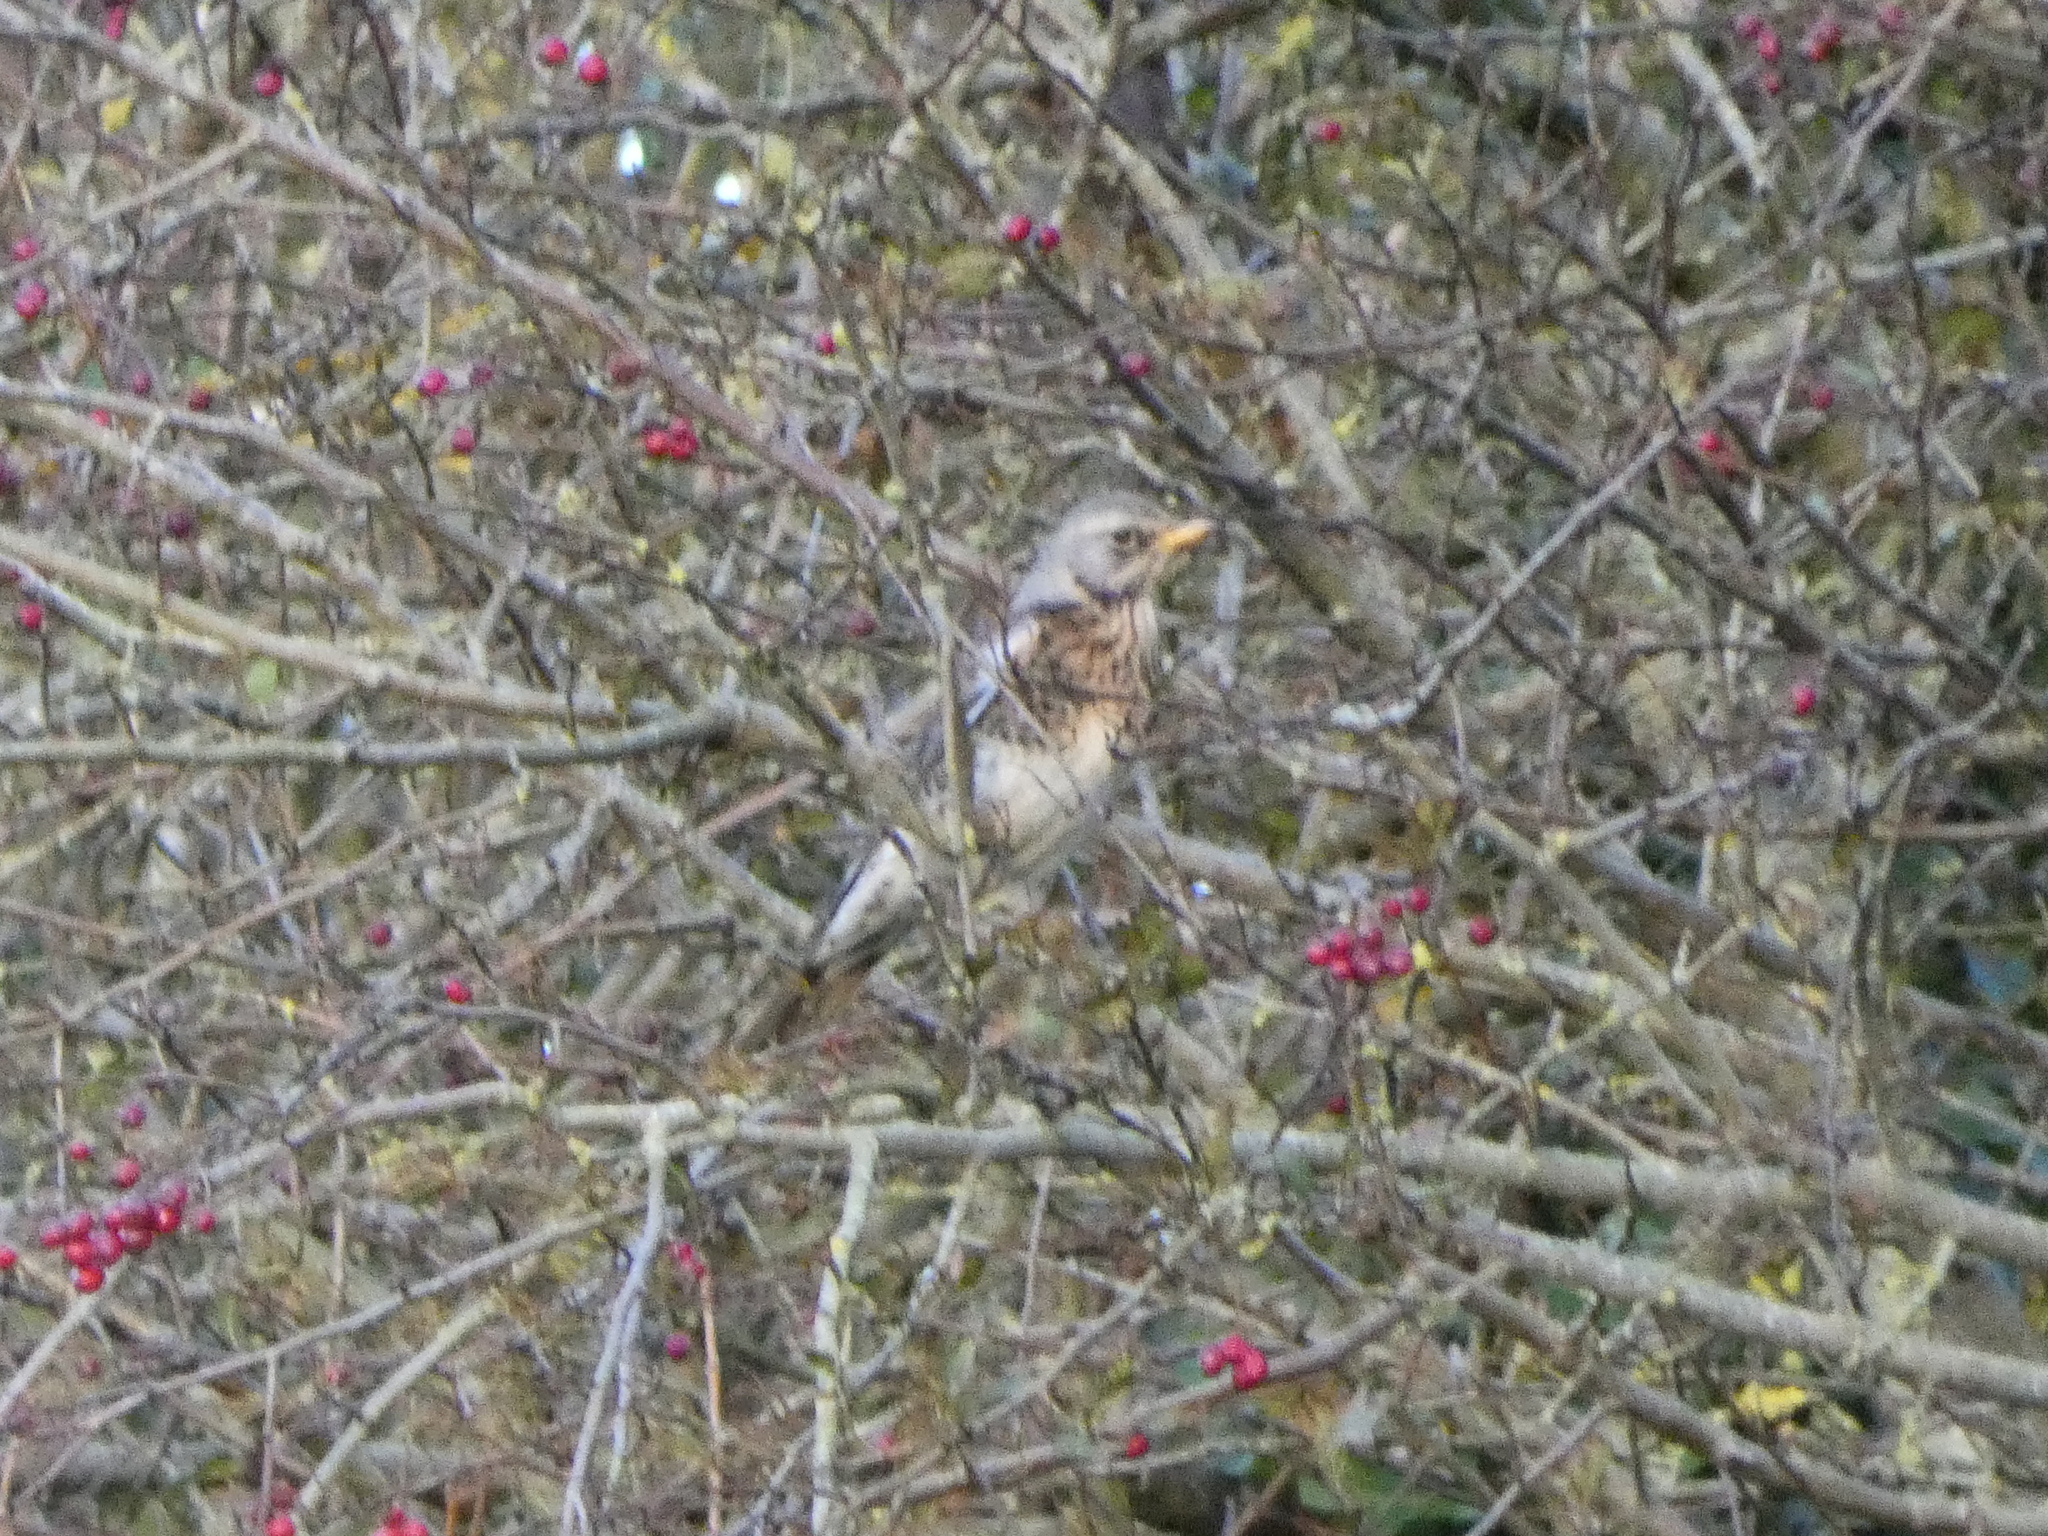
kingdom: Animalia
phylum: Chordata
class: Aves
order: Passeriformes
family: Turdidae
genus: Turdus
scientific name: Turdus pilaris
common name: Fieldfare
